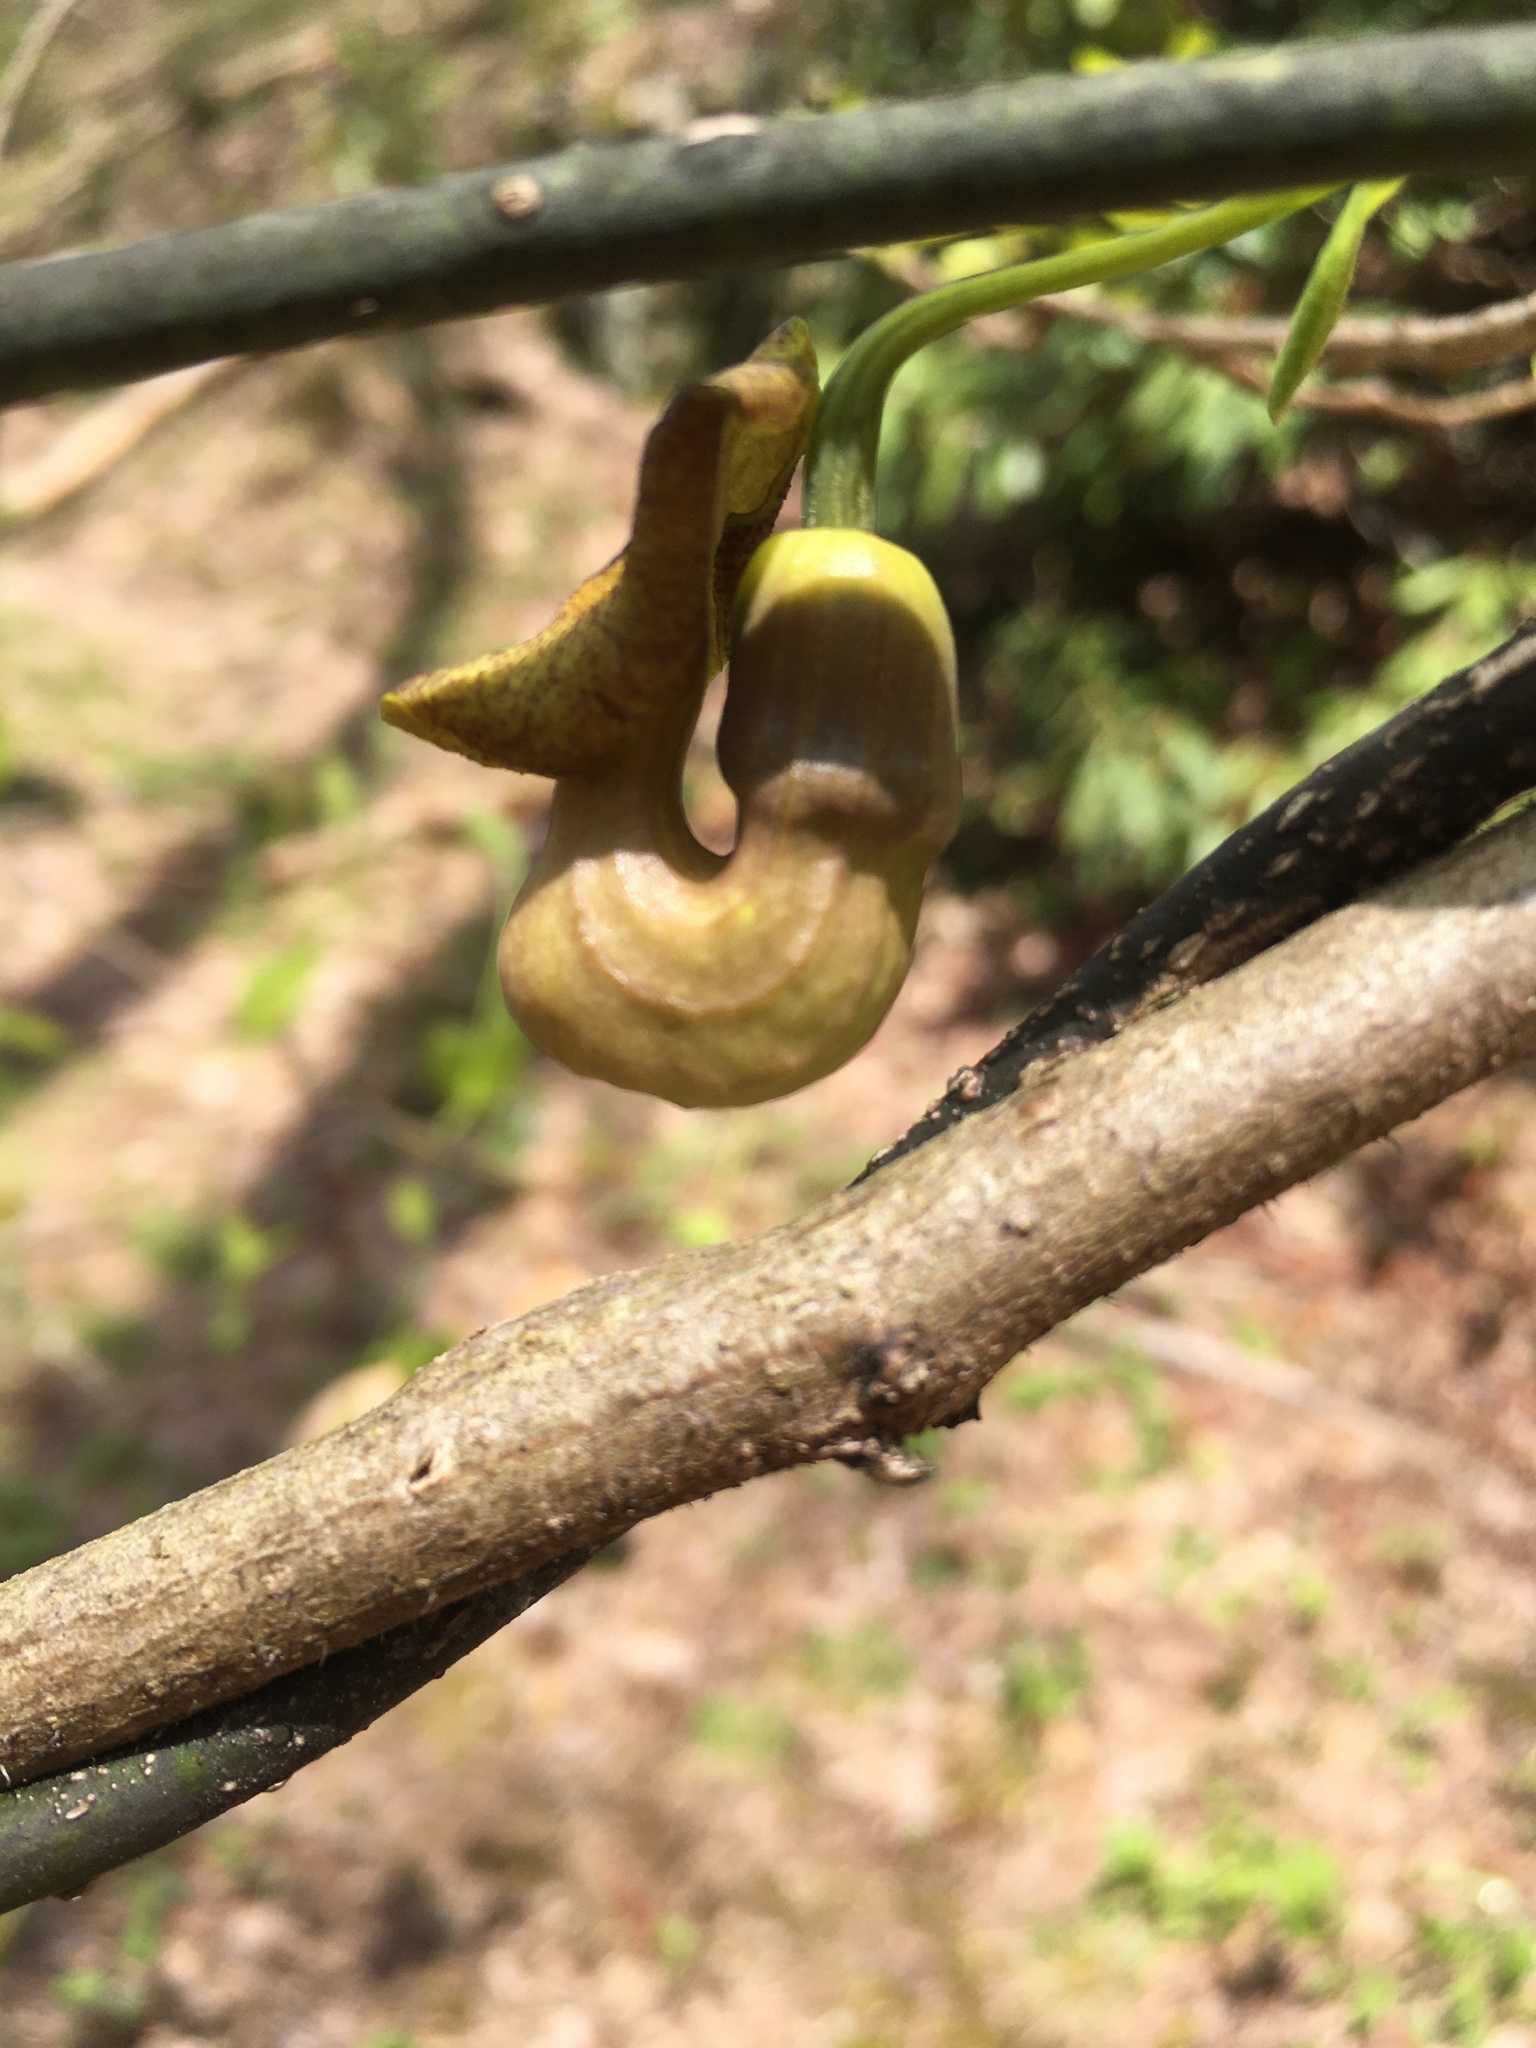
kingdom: Plantae
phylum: Tracheophyta
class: Magnoliopsida
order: Piperales
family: Aristolochiaceae
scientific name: Aristolochiaceae
